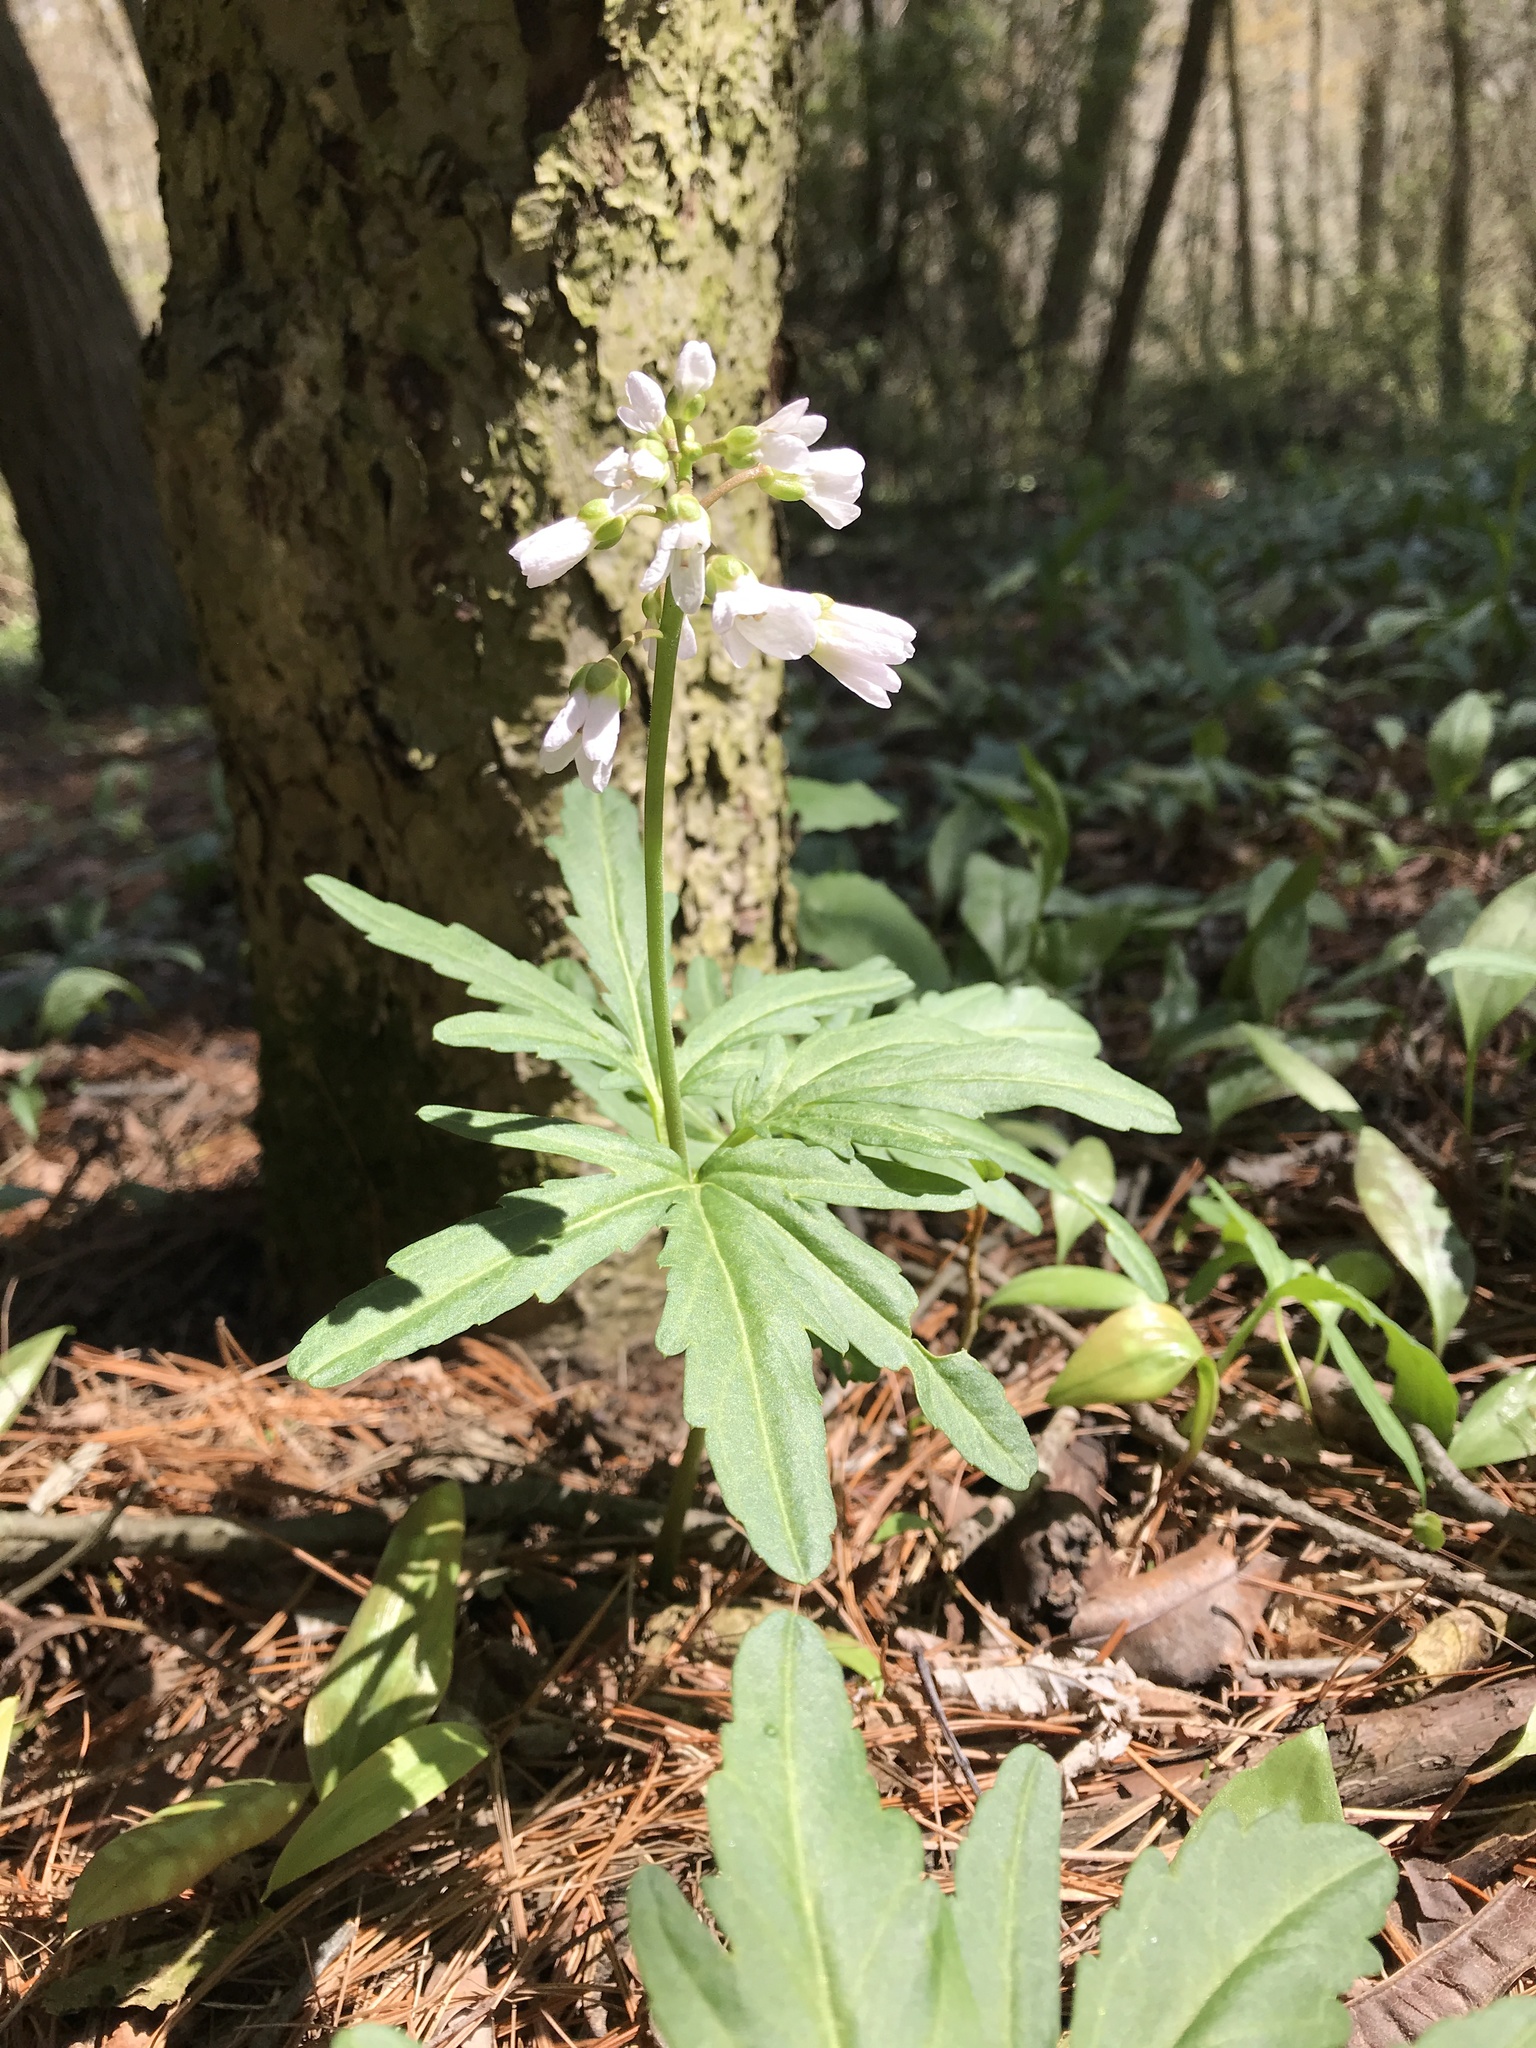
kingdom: Plantae
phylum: Tracheophyta
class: Magnoliopsida
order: Brassicales
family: Brassicaceae
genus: Cardamine
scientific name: Cardamine concatenata
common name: Cut-leaf toothcup
